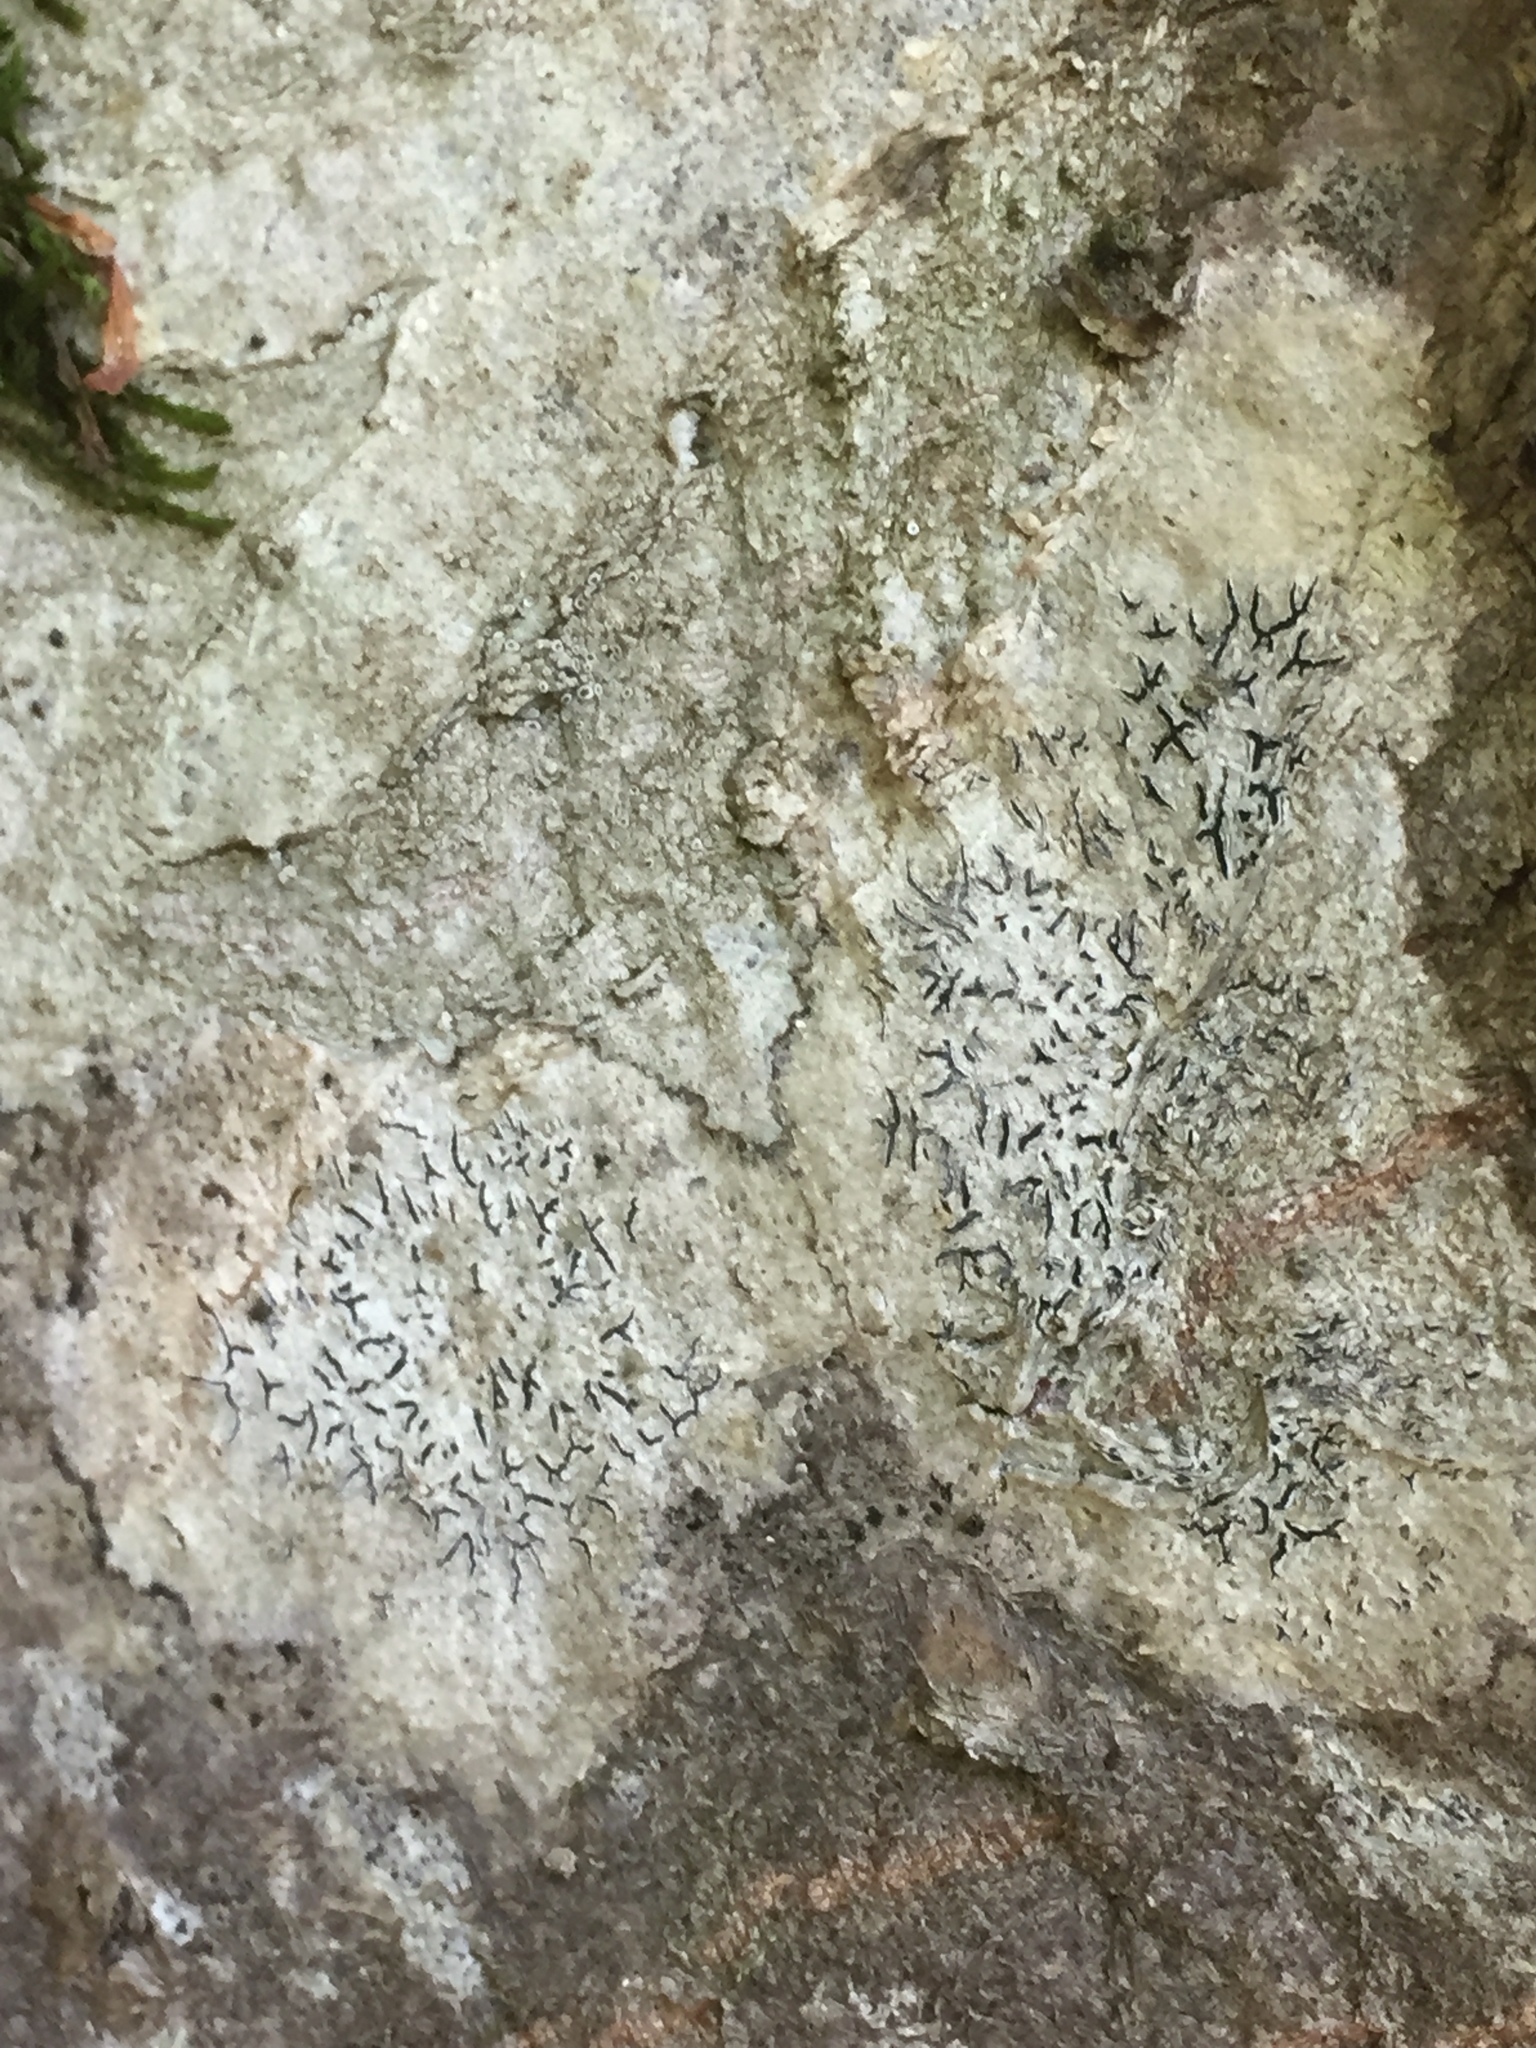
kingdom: Fungi
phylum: Ascomycota
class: Lecanoromycetes
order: Ostropales
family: Graphidaceae
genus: Graphis
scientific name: Graphis scripta
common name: Script lichen
